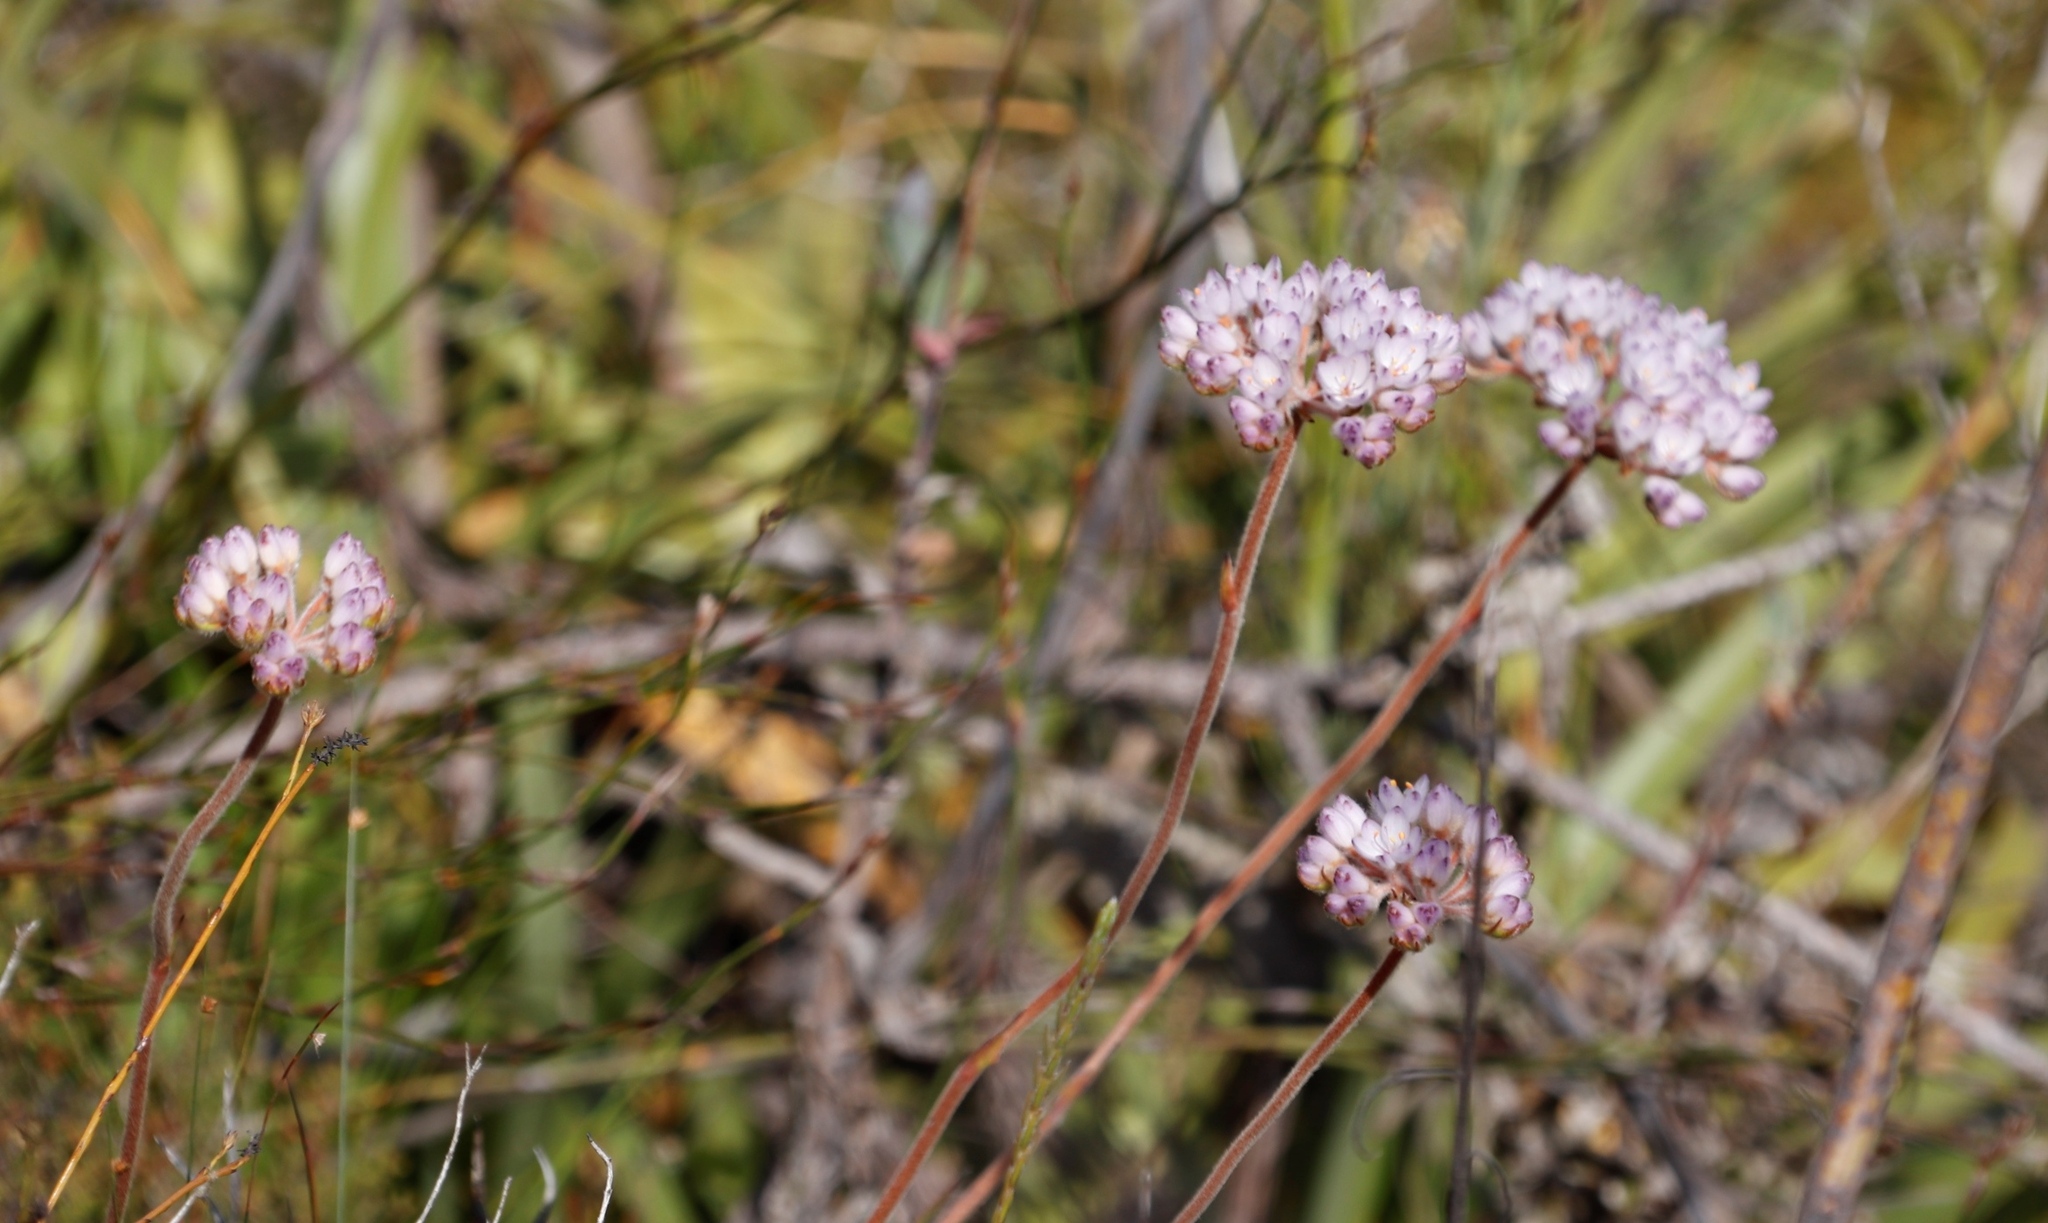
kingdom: Plantae
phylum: Tracheophyta
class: Liliopsida
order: Commelinales
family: Haemodoraceae
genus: Dilatris
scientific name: Dilatris pillansii
